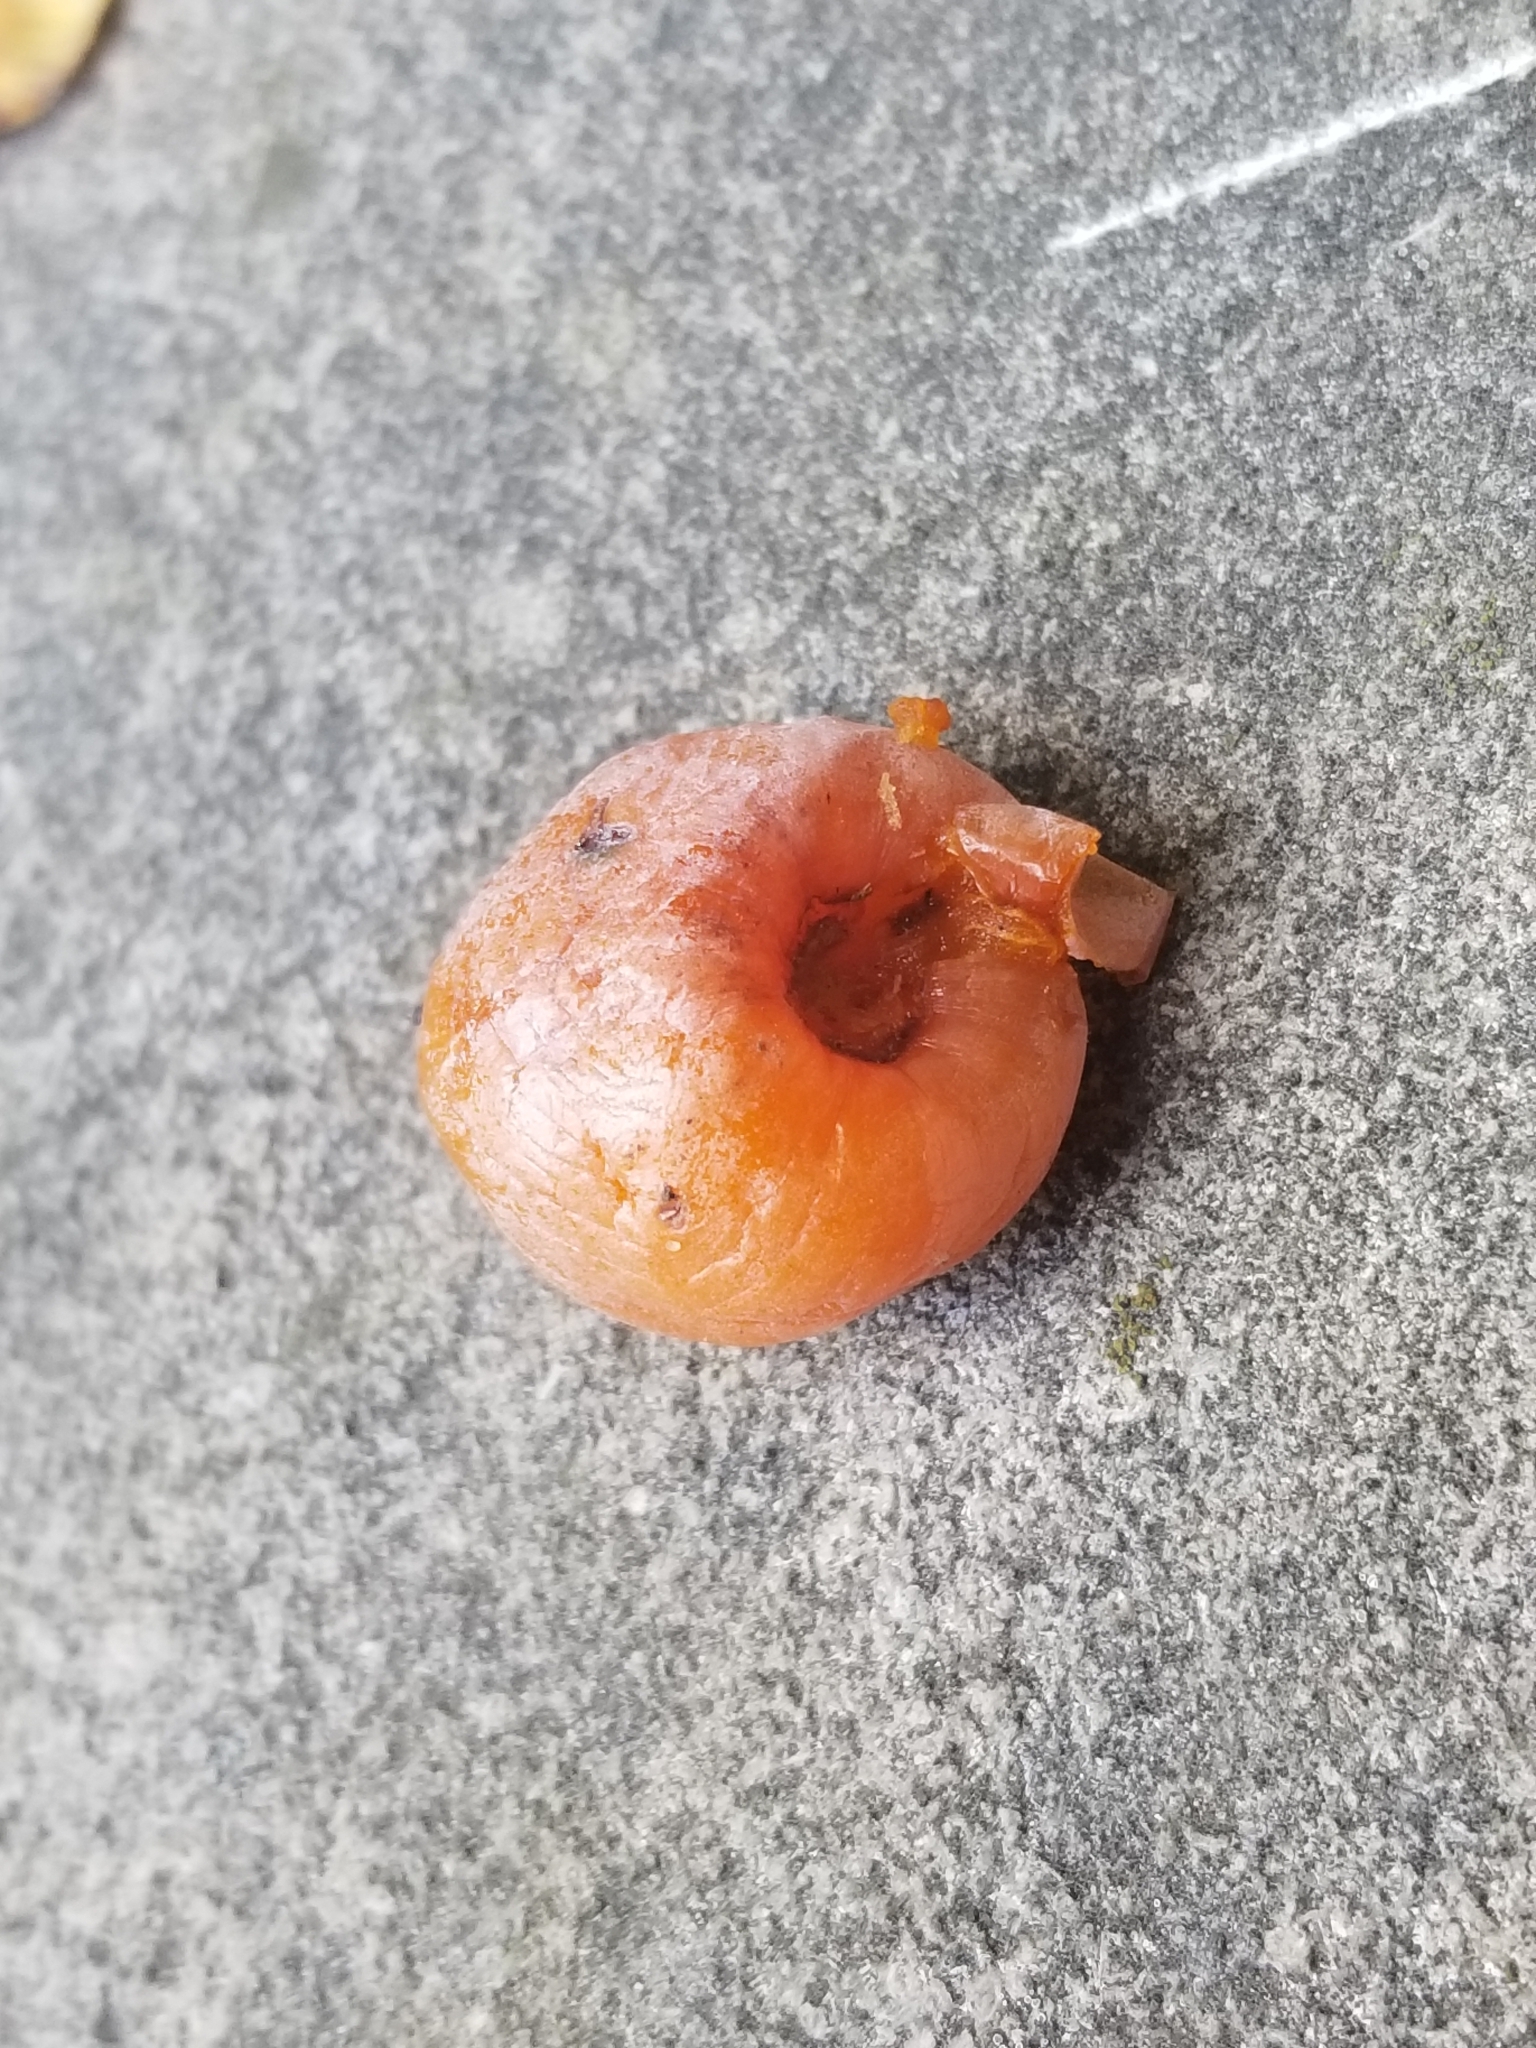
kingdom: Plantae
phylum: Tracheophyta
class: Magnoliopsida
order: Ericales
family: Ebenaceae
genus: Diospyros
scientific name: Diospyros virginiana
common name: Persimmon
